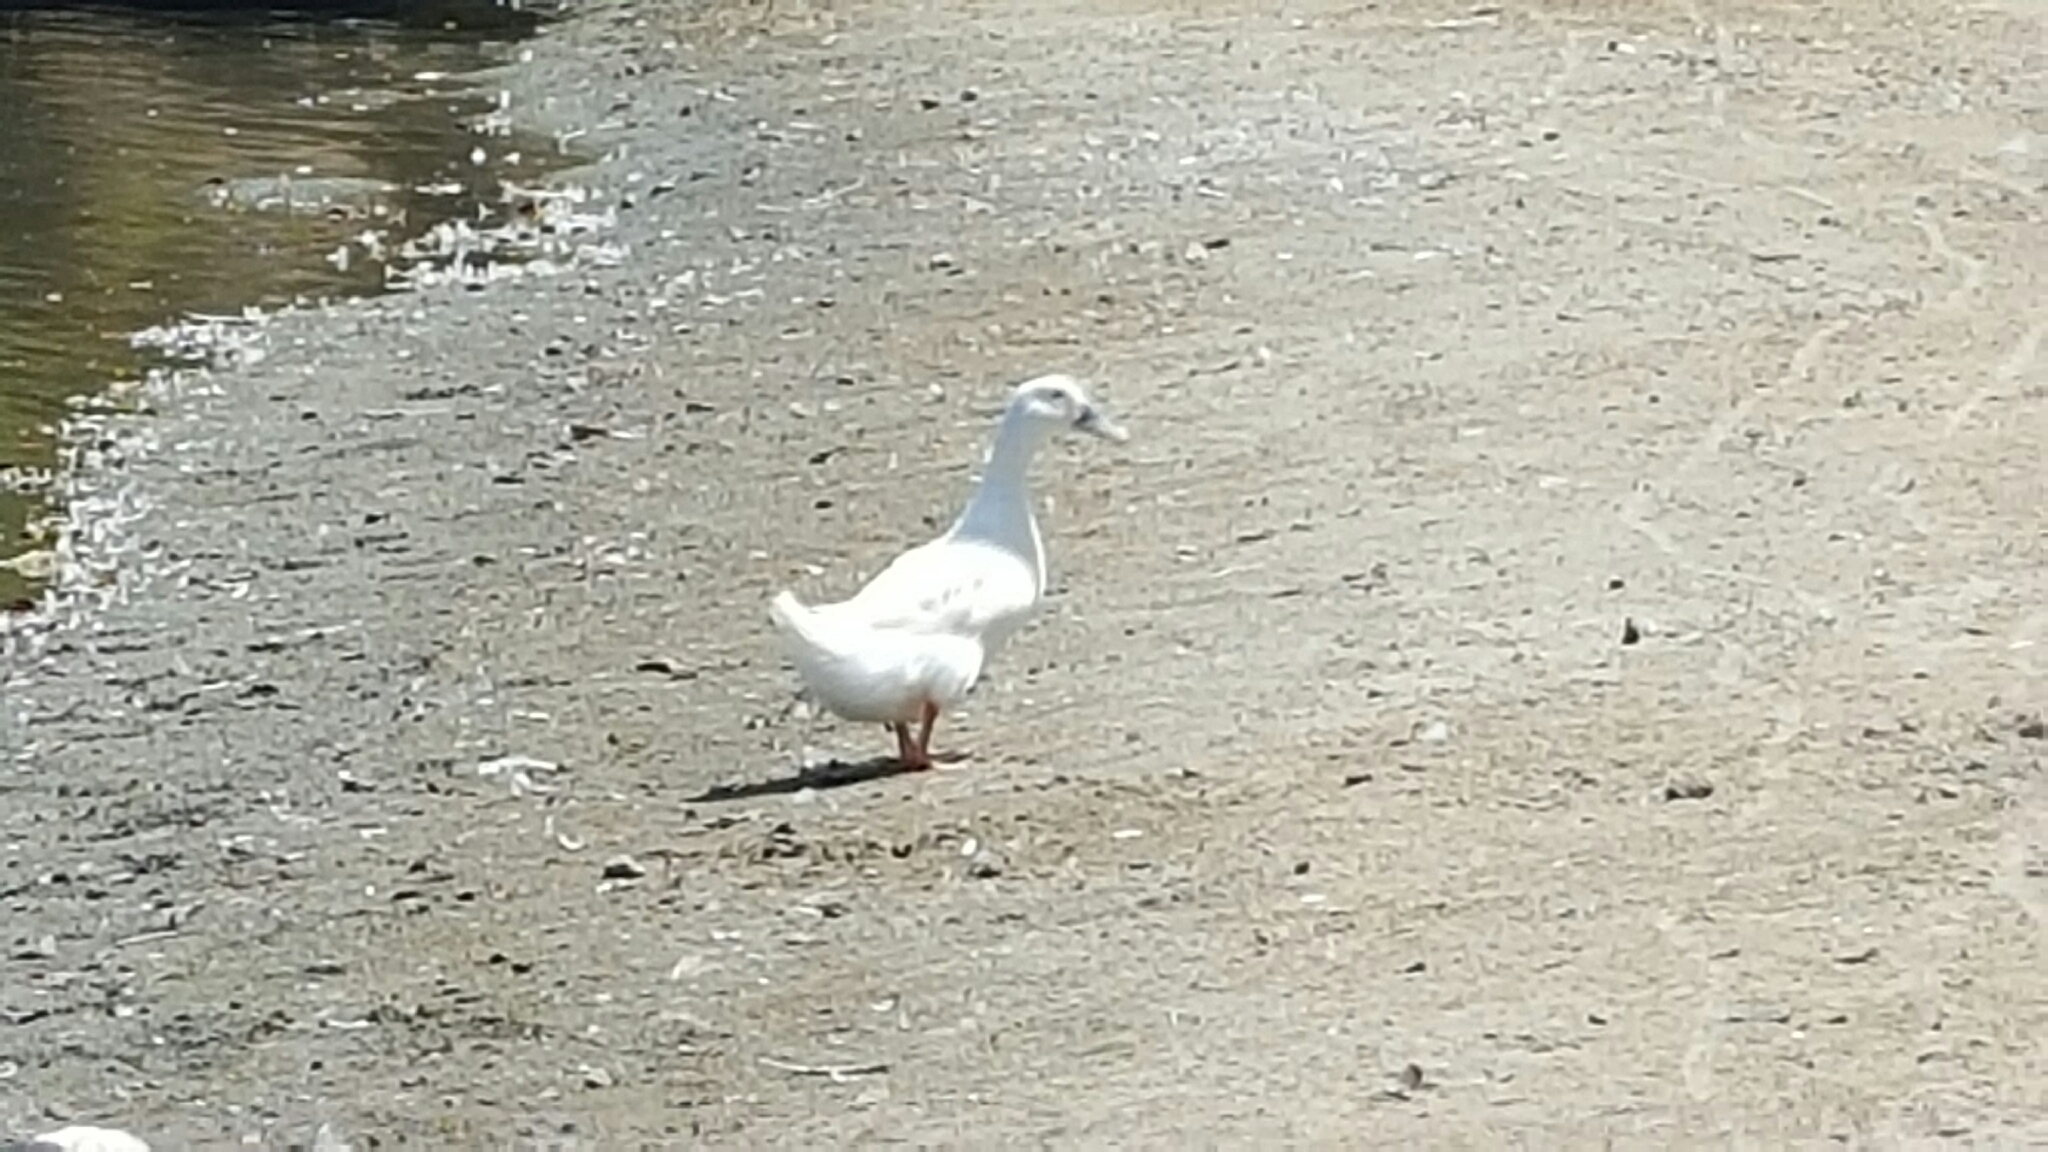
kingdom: Animalia
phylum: Chordata
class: Aves
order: Anseriformes
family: Anatidae
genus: Anas
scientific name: Anas platyrhynchos
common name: Mallard
